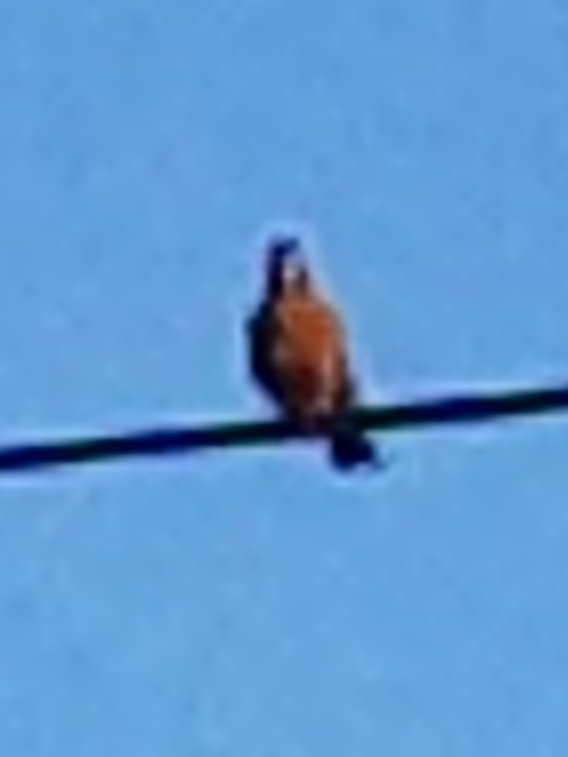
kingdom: Animalia
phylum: Chordata
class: Aves
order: Passeriformes
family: Turdidae
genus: Turdus
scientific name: Turdus migratorius
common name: American robin
